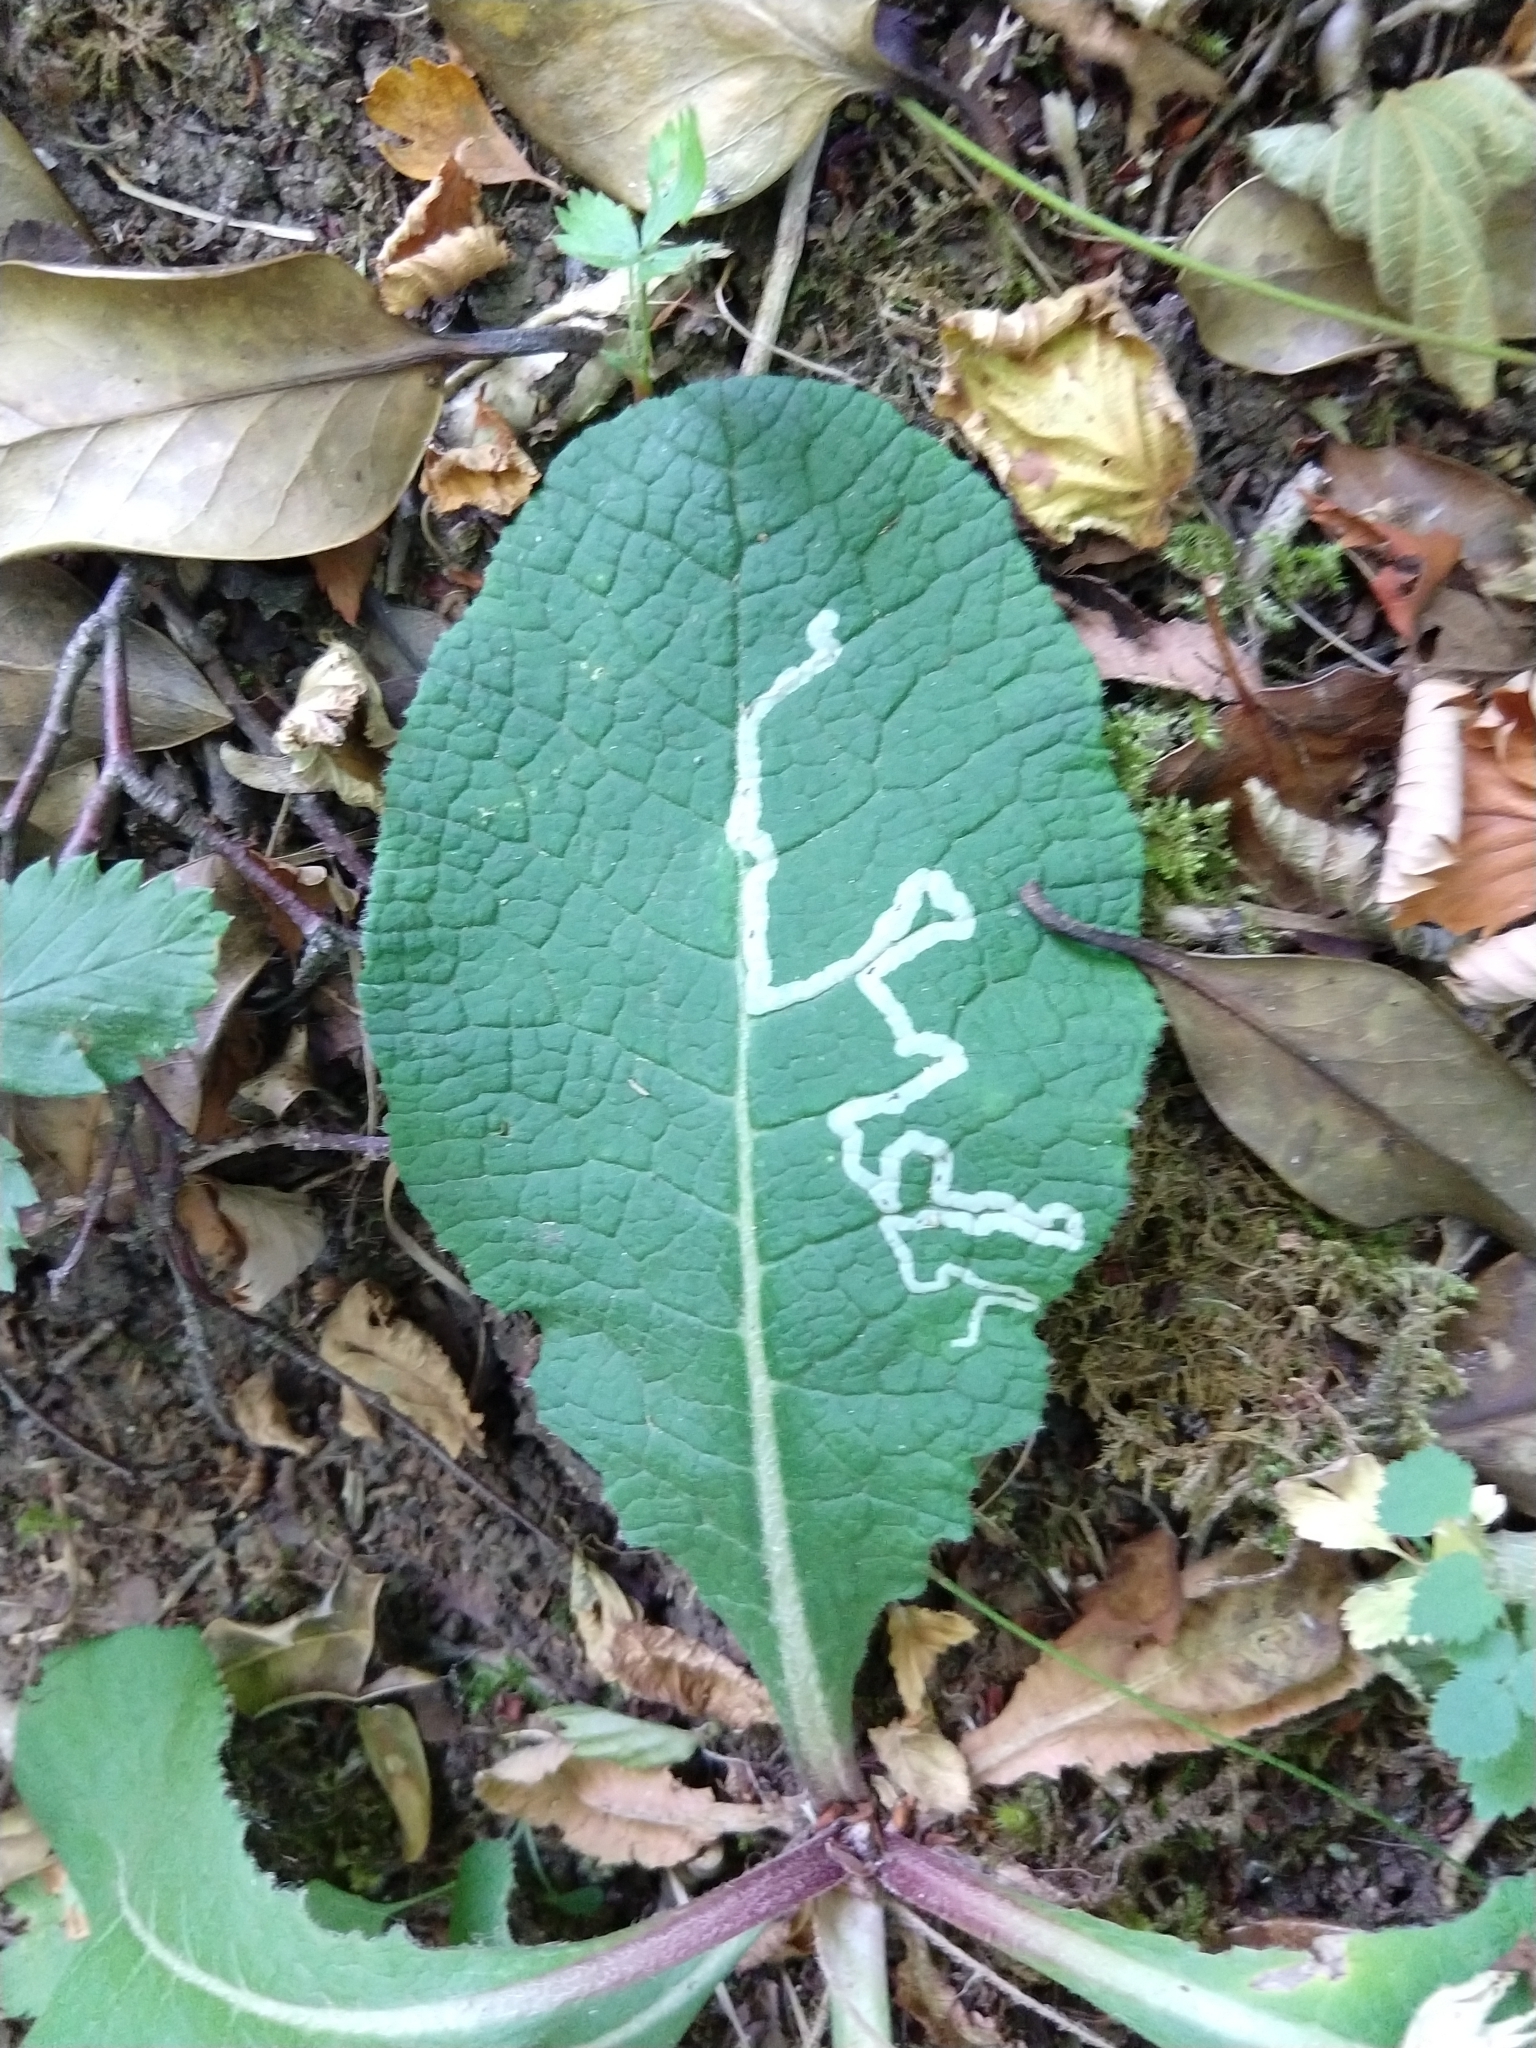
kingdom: Animalia
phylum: Arthropoda
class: Insecta
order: Diptera
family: Agromyzidae
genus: Phytomyza
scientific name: Phytomyza primulae
